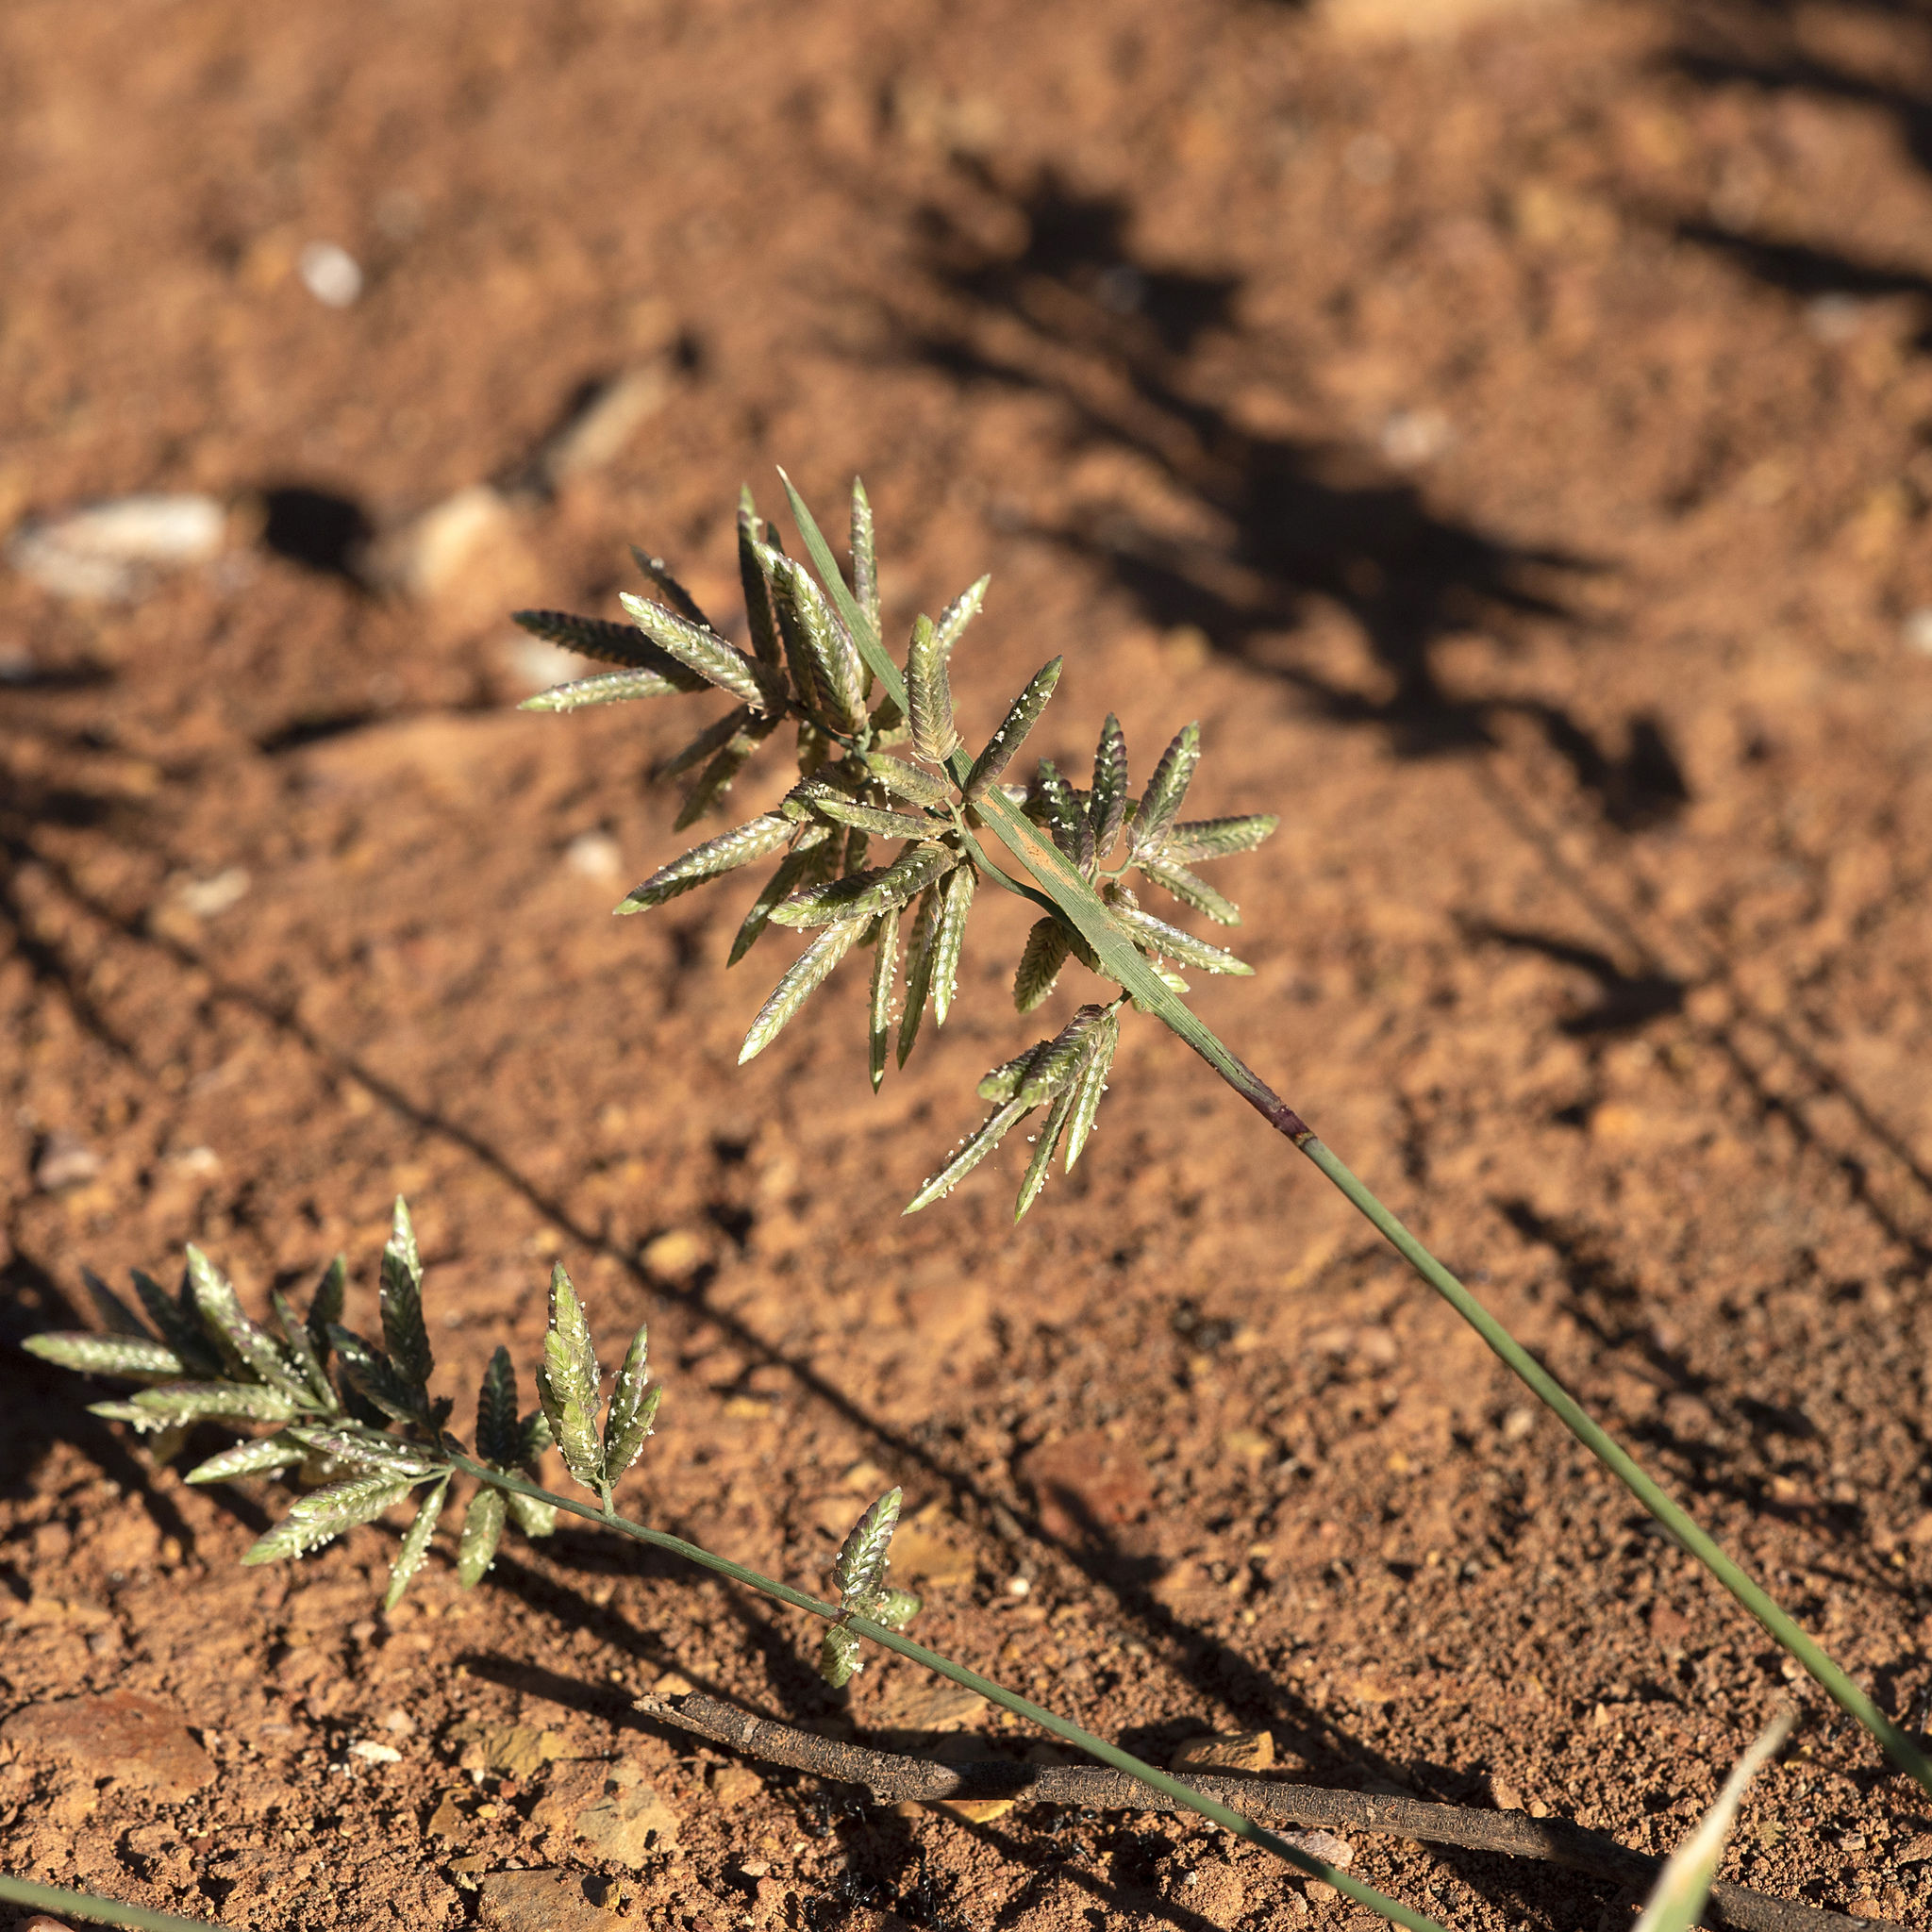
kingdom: Plantae
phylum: Tracheophyta
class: Liliopsida
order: Poales
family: Poaceae
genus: Eragrostis
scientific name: Eragrostis cilianensis
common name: Stinkgrass
